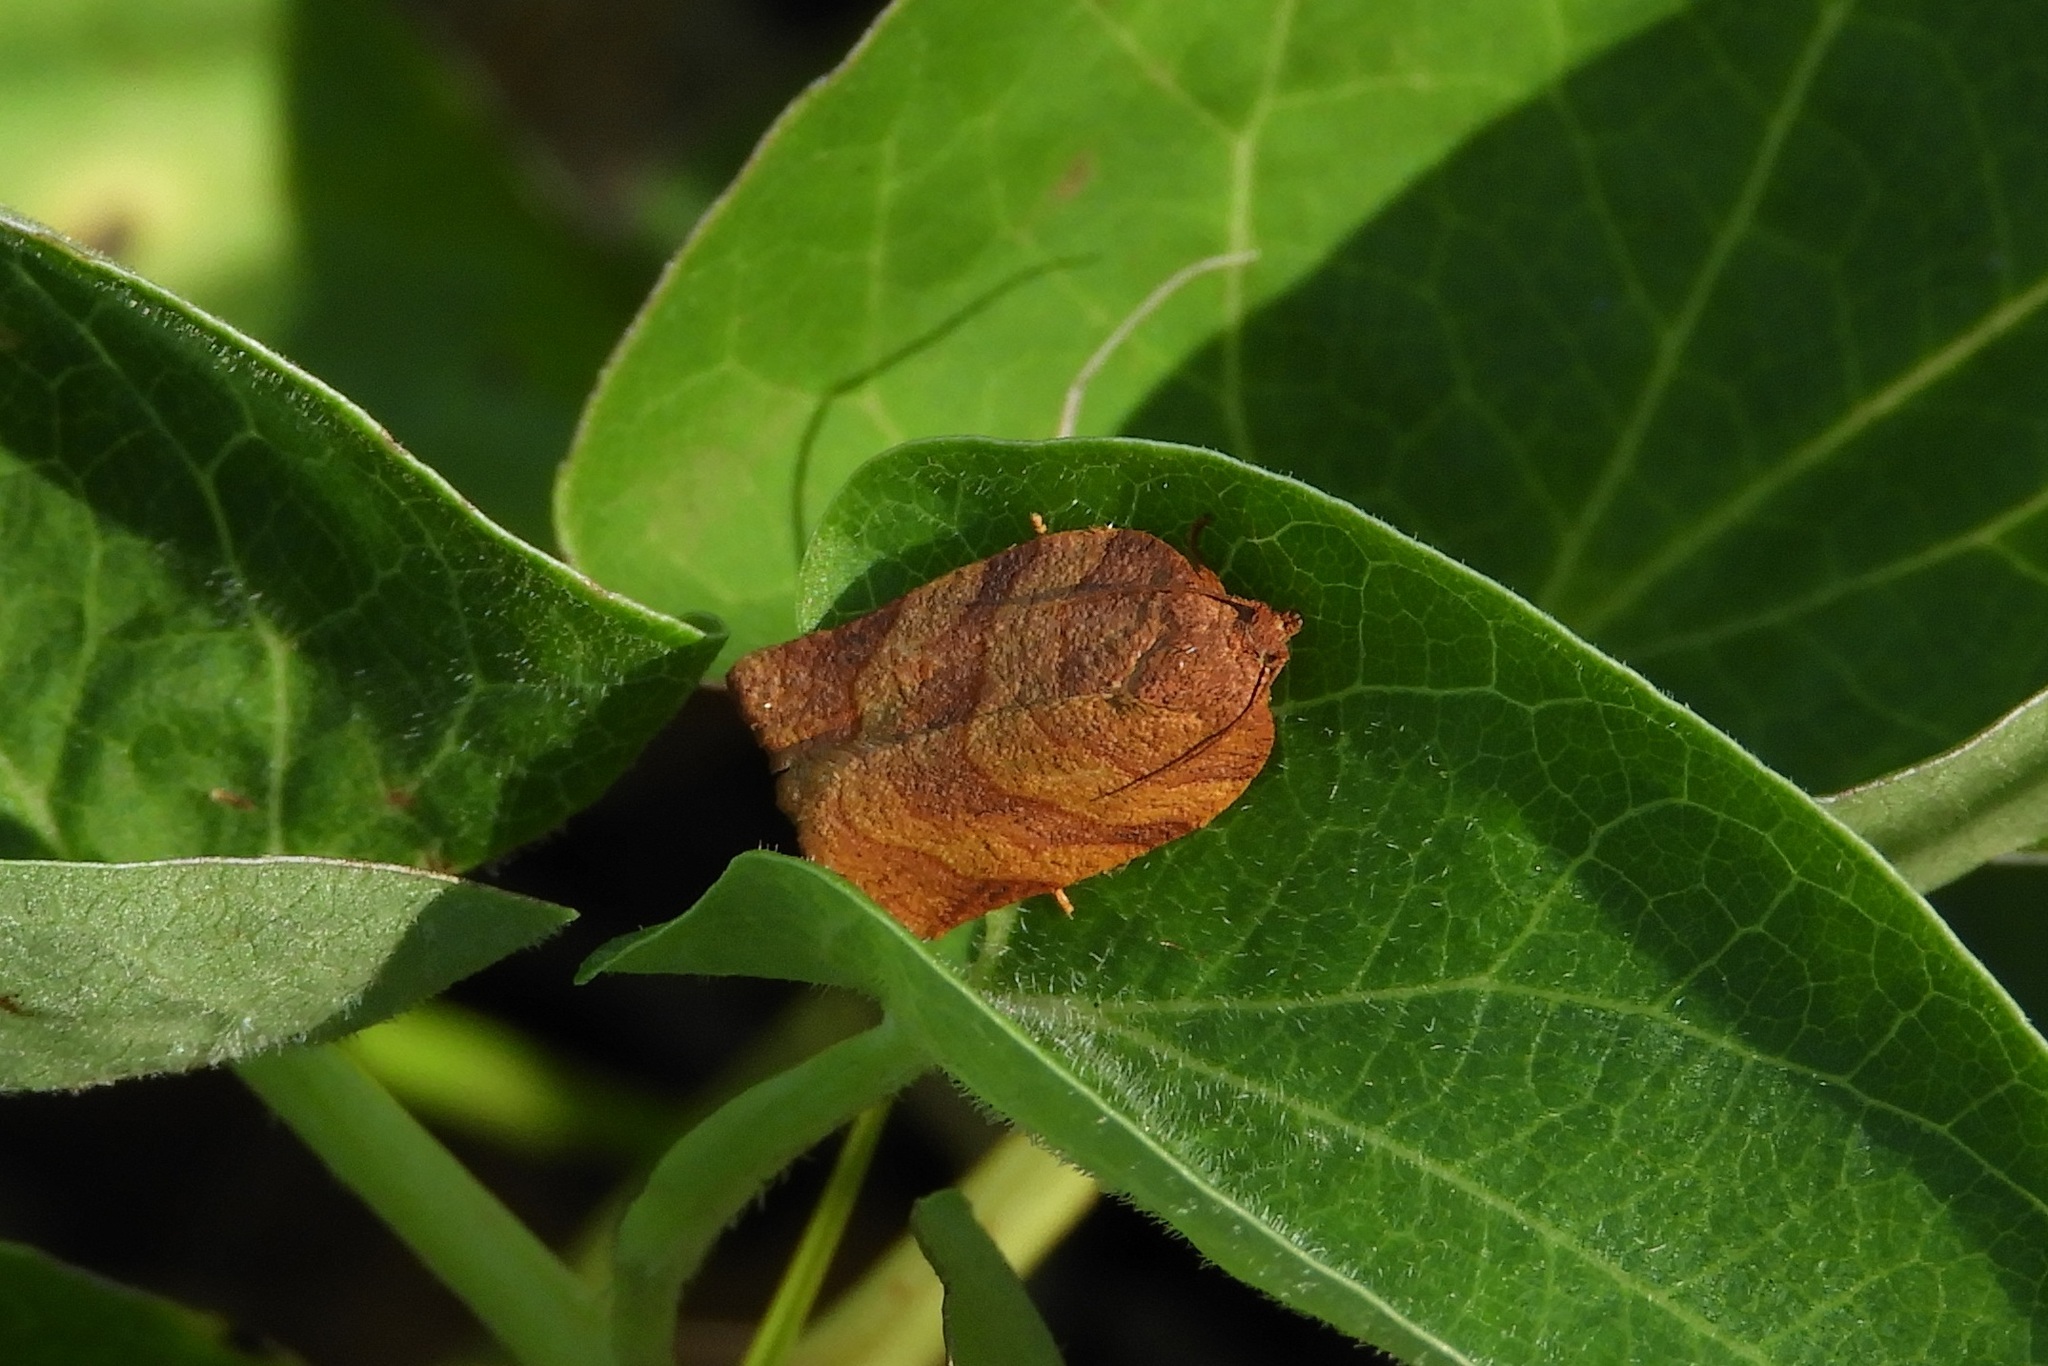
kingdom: Animalia
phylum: Arthropoda
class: Insecta
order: Lepidoptera
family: Tortricidae
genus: Choristoneura
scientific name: Choristoneura parallela
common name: Parallel-banded leafroller moth
